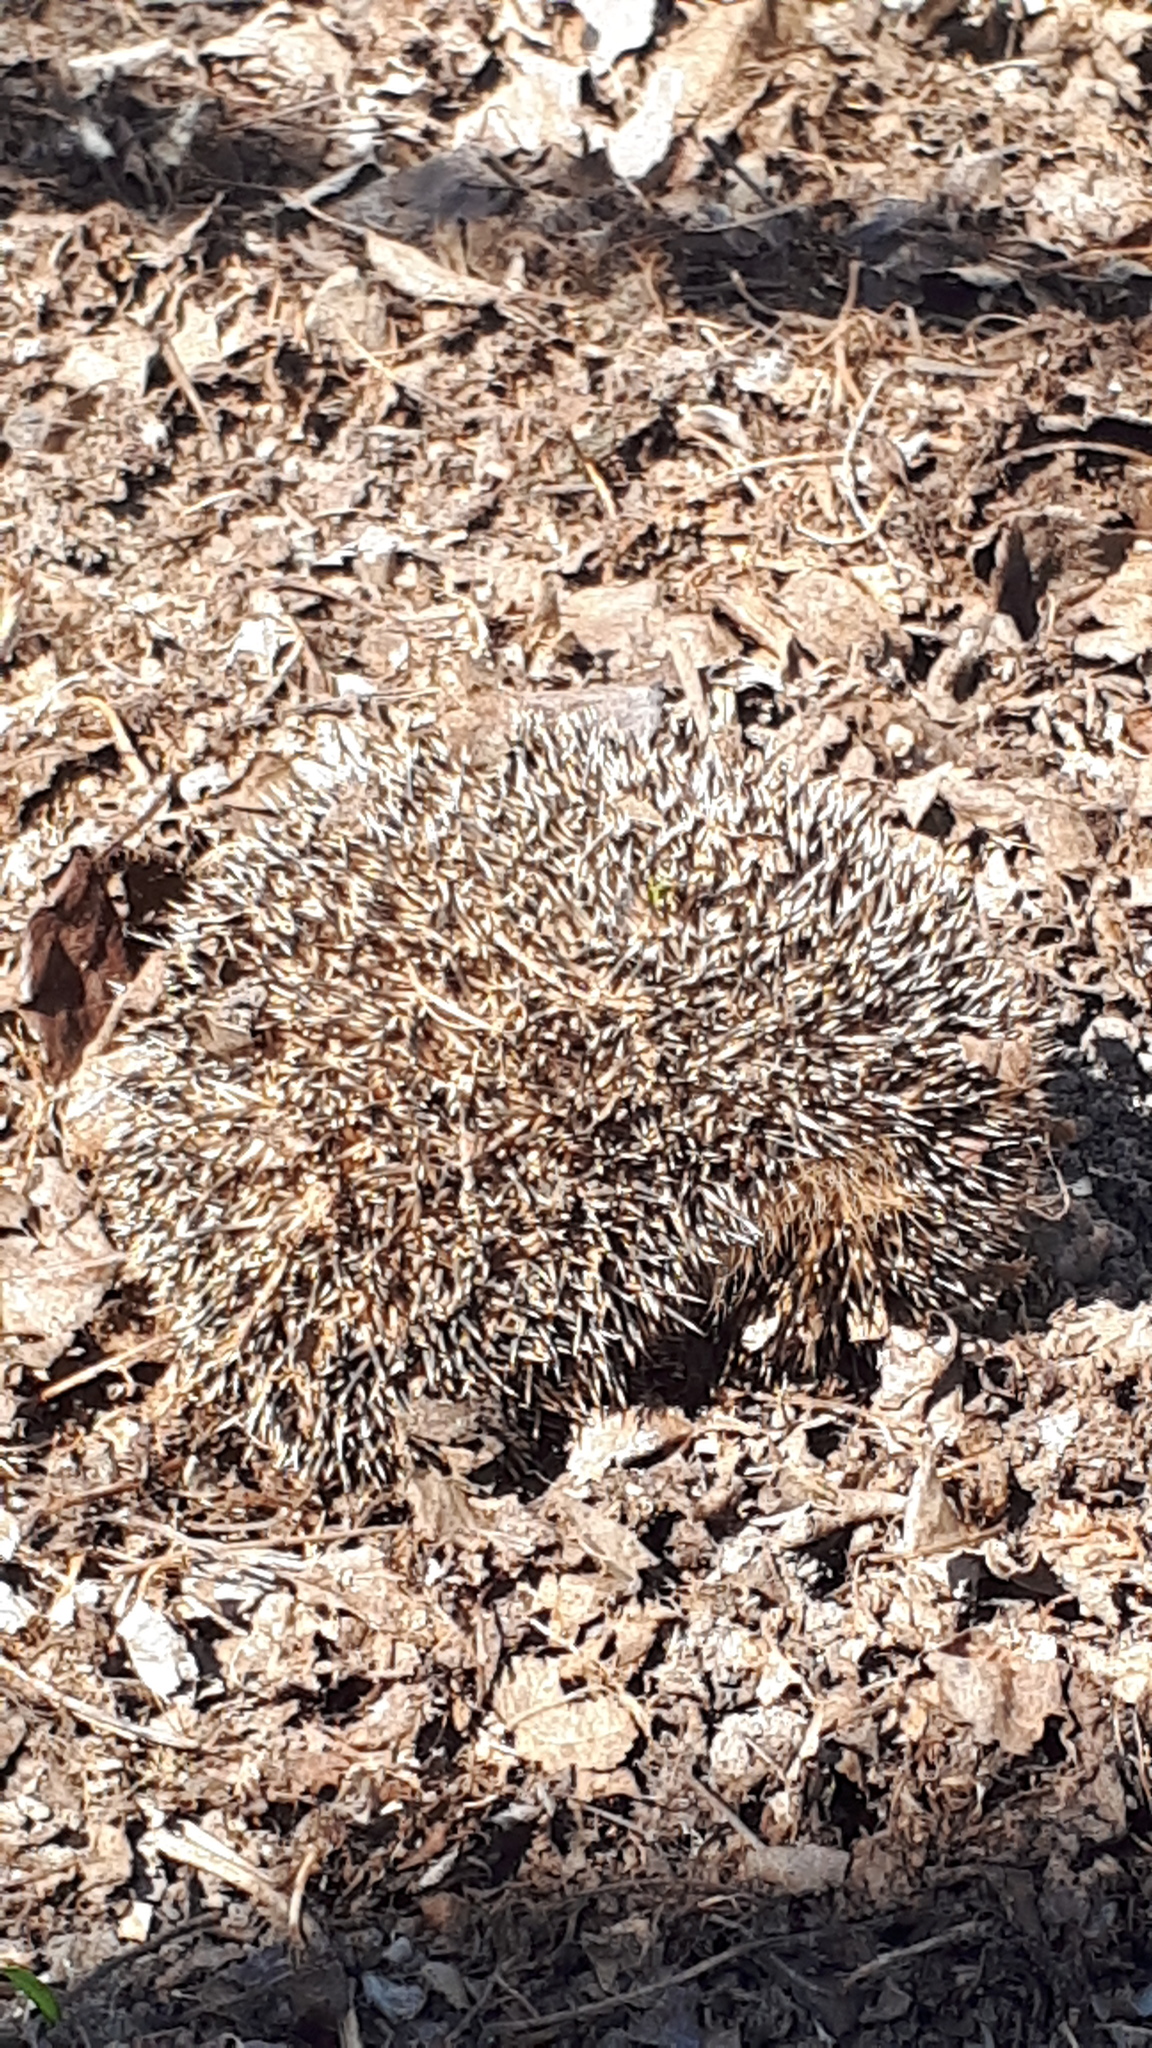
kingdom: Animalia
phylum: Chordata
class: Mammalia
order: Erinaceomorpha
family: Erinaceidae
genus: Erinaceus
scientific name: Erinaceus europaeus
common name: West european hedgehog
